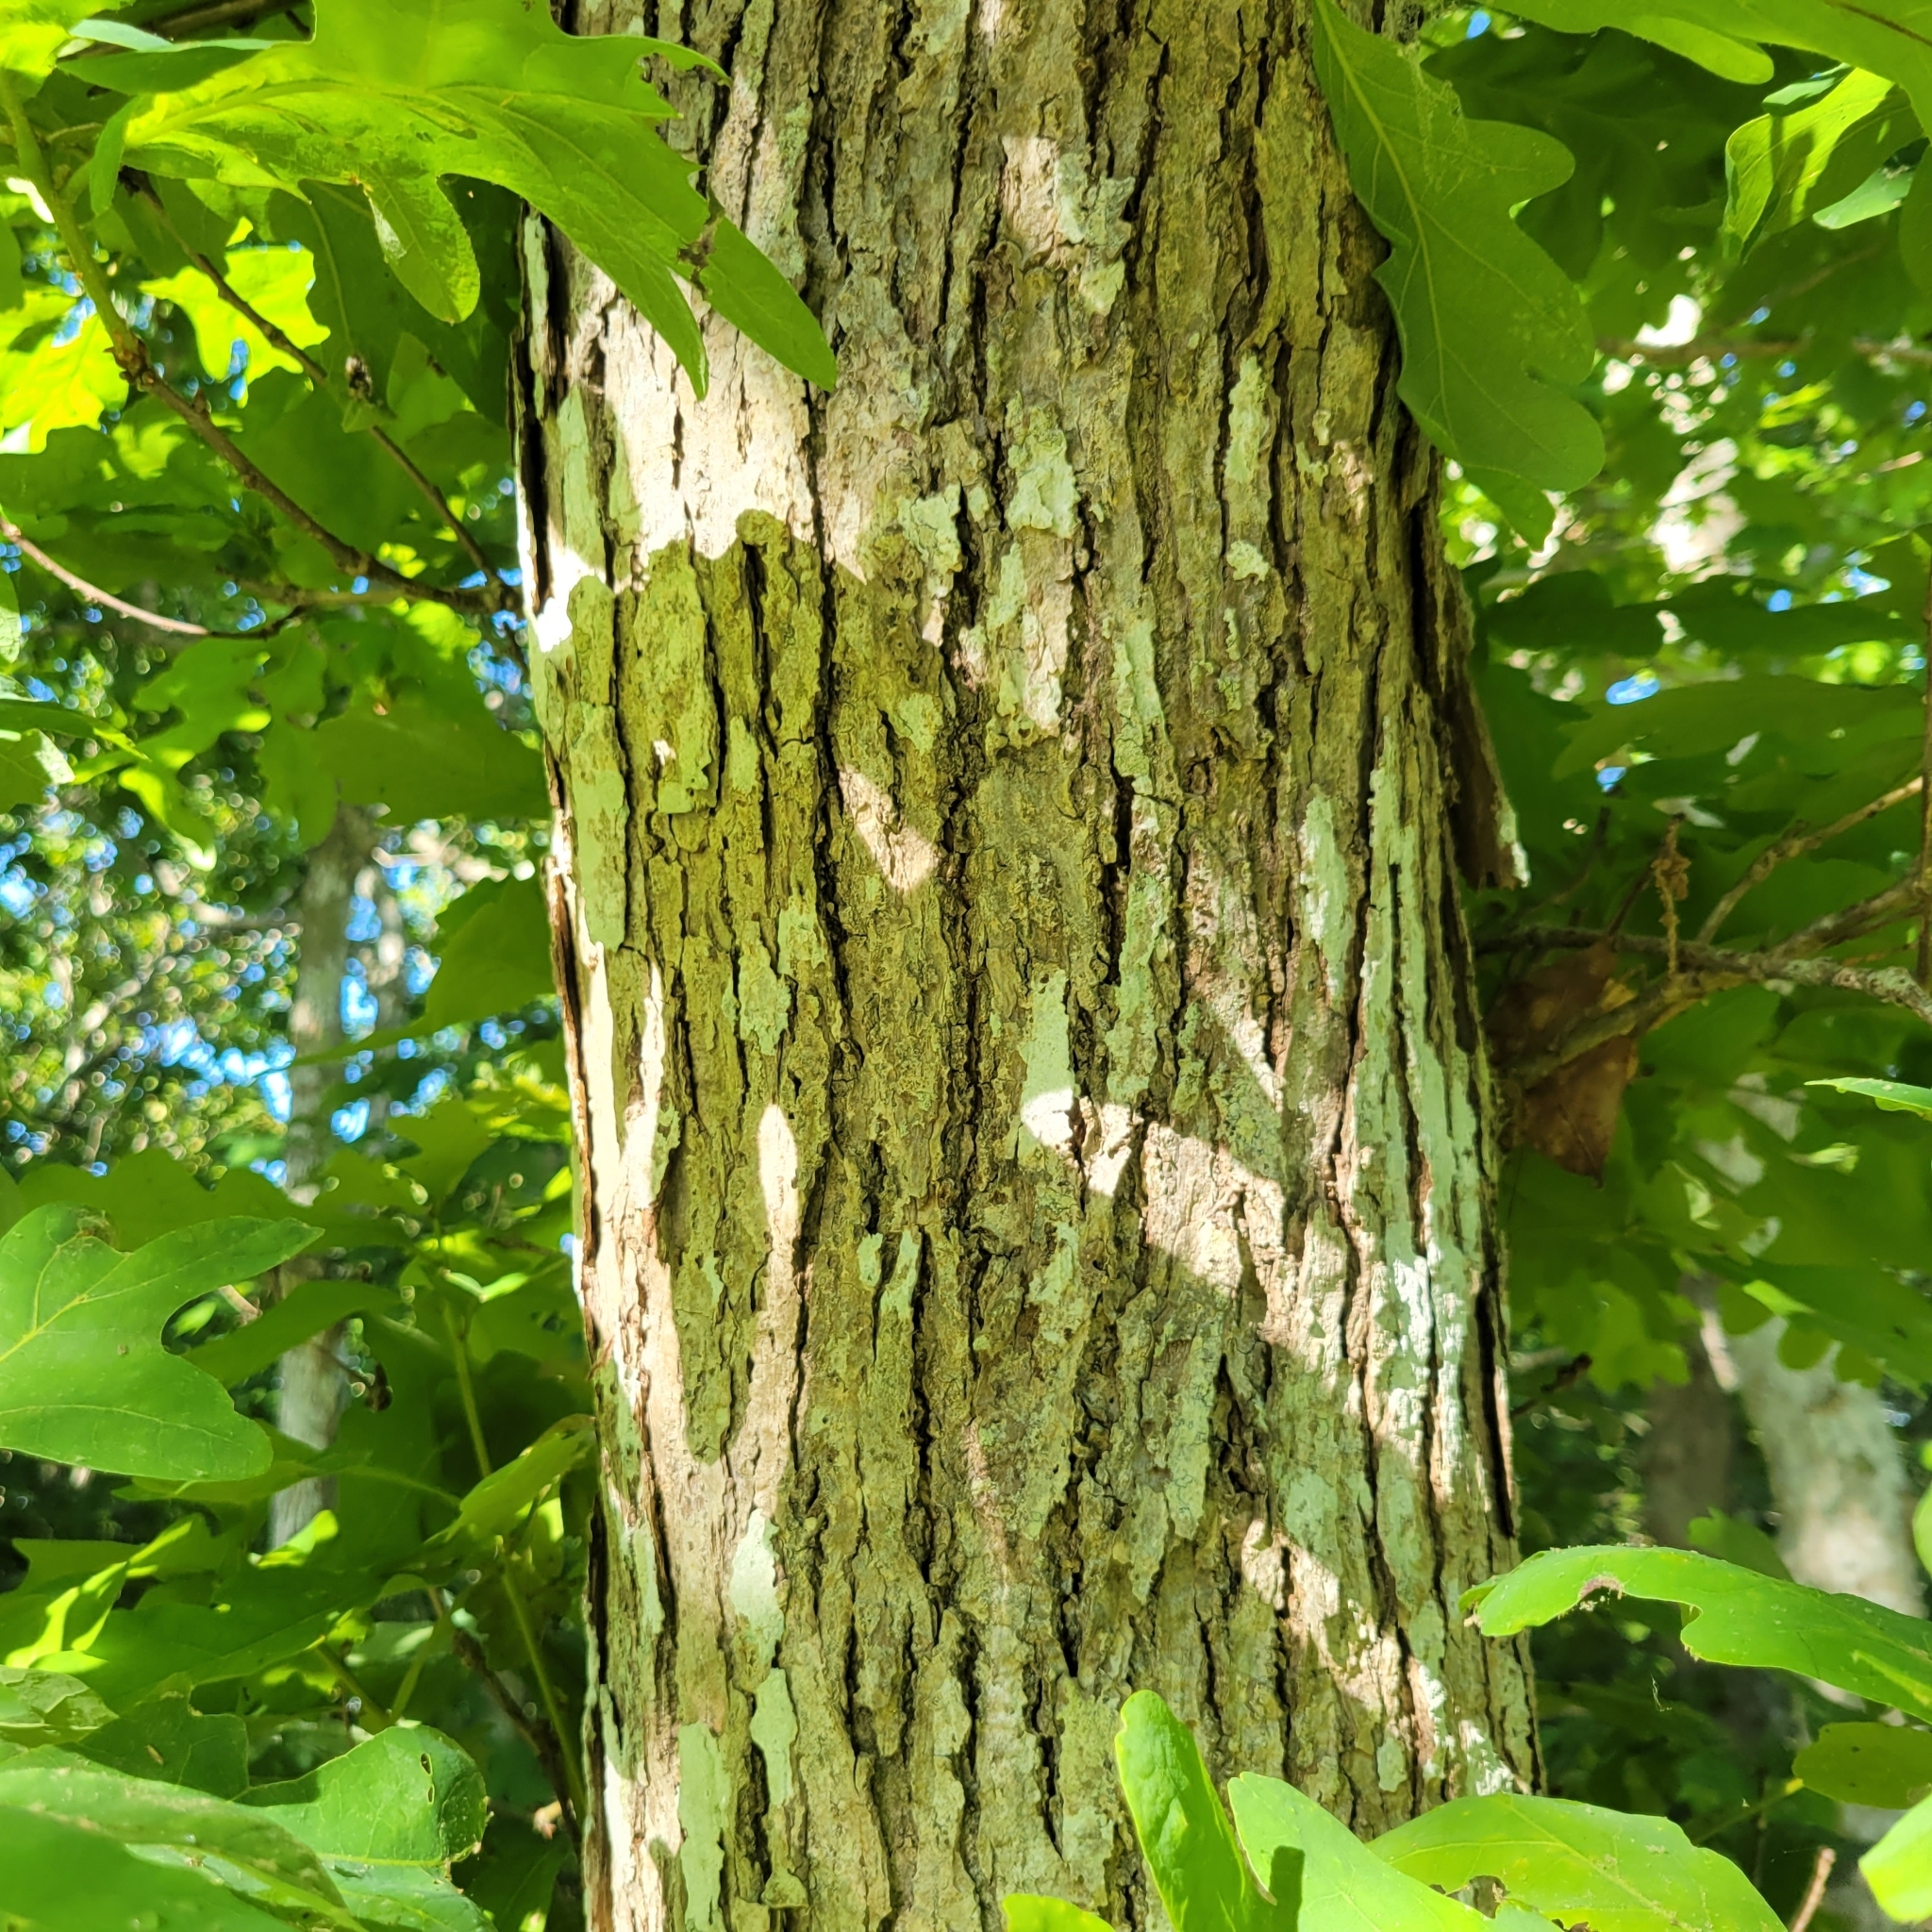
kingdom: Plantae
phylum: Tracheophyta
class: Magnoliopsida
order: Fagales
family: Fagaceae
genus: Quercus
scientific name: Quercus alba
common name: White oak
